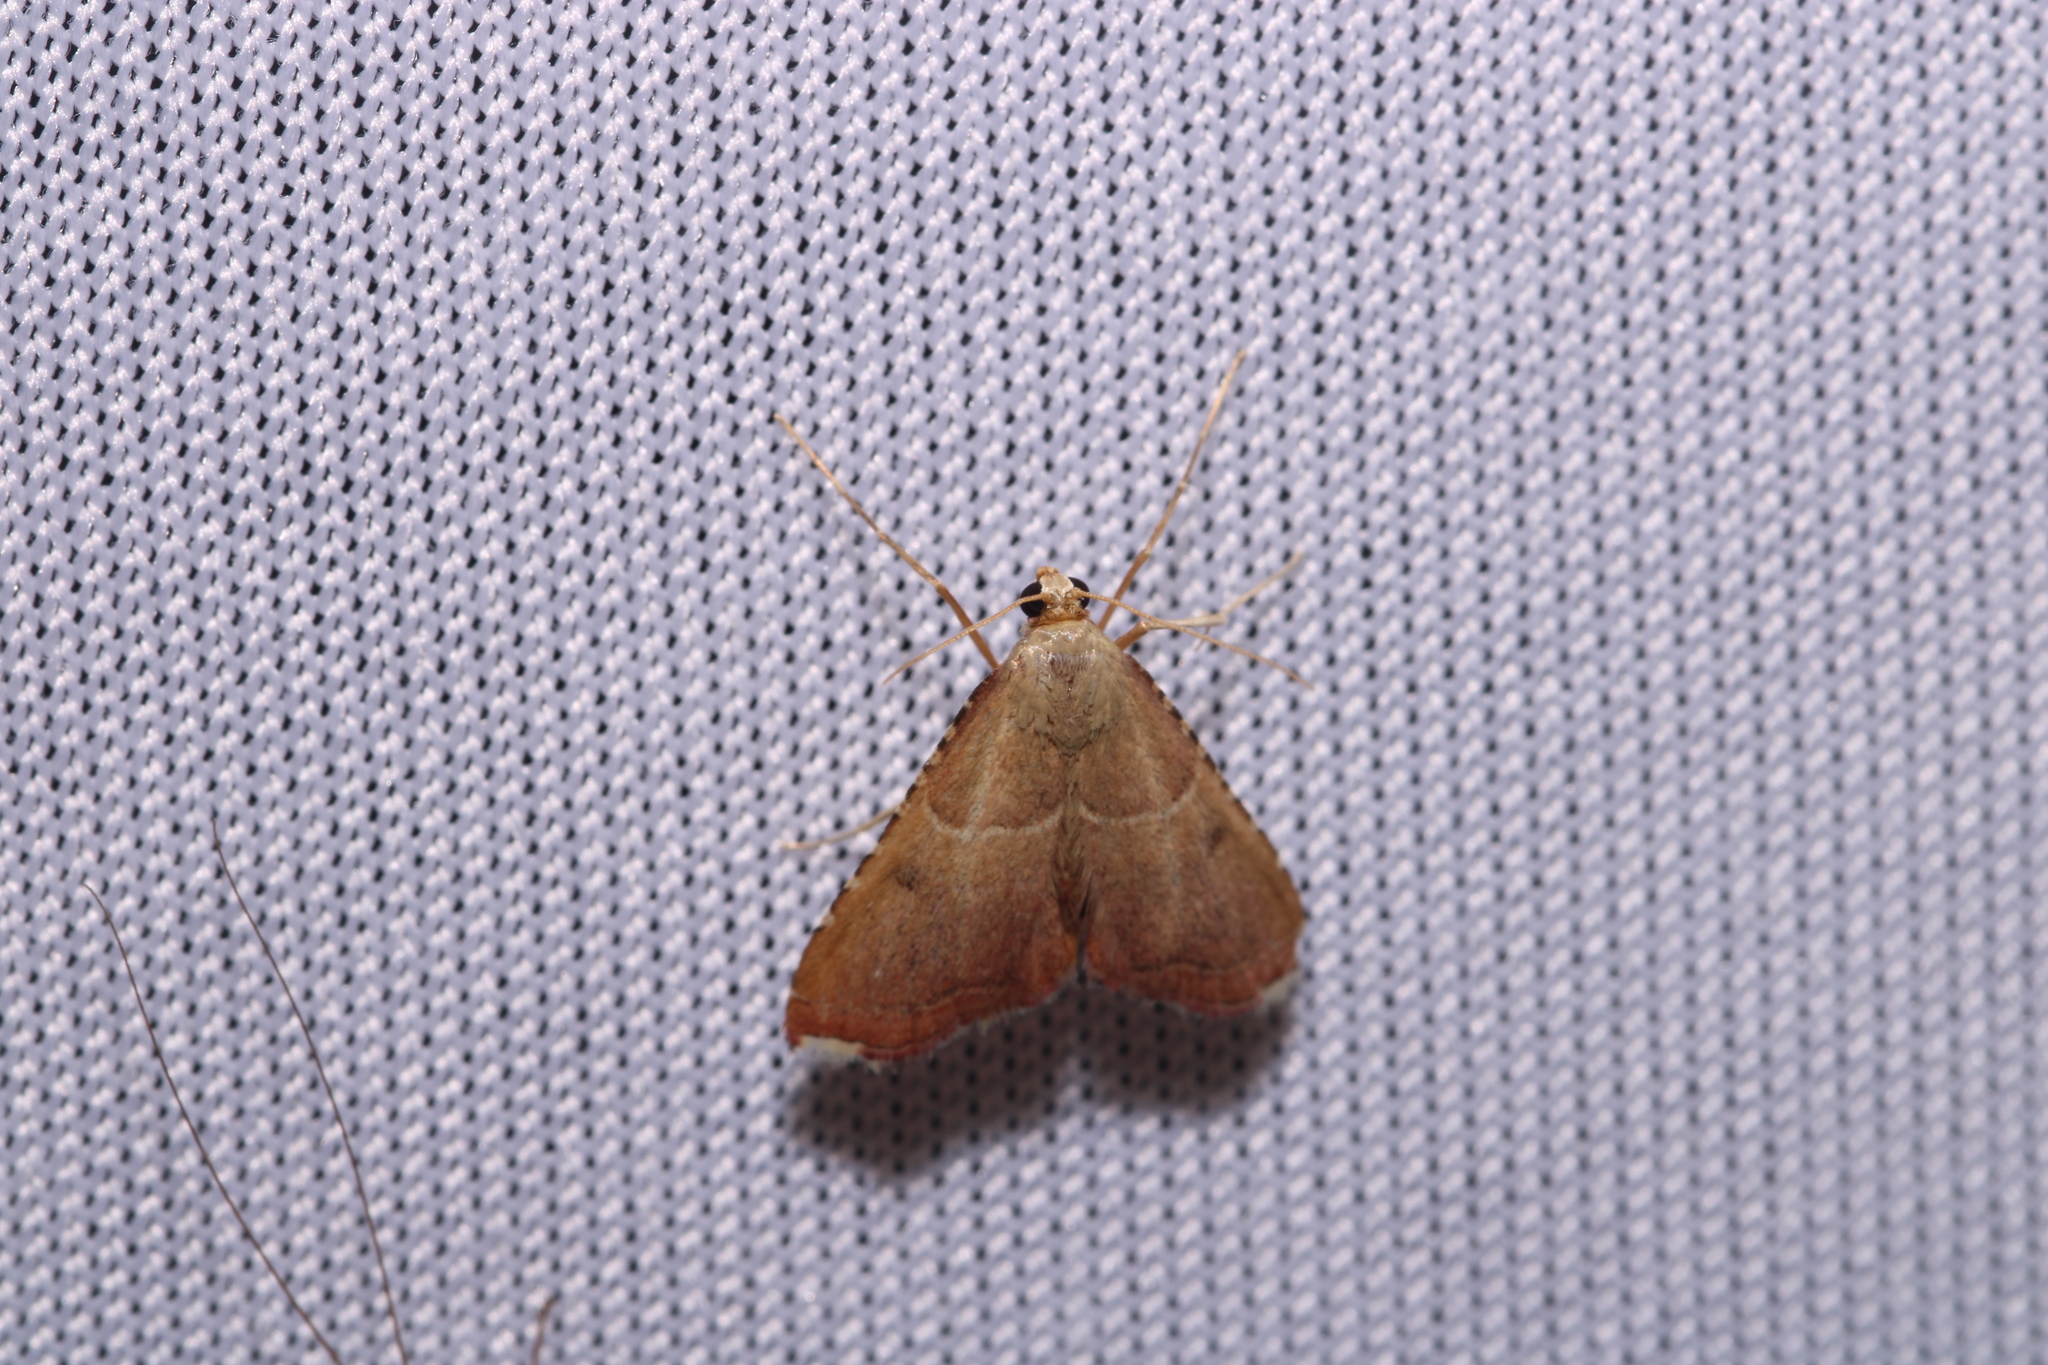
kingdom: Animalia
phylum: Arthropoda
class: Insecta
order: Lepidoptera
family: Pyralidae
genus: Endotricha
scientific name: Endotricha flammealis
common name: Rosy tabby
